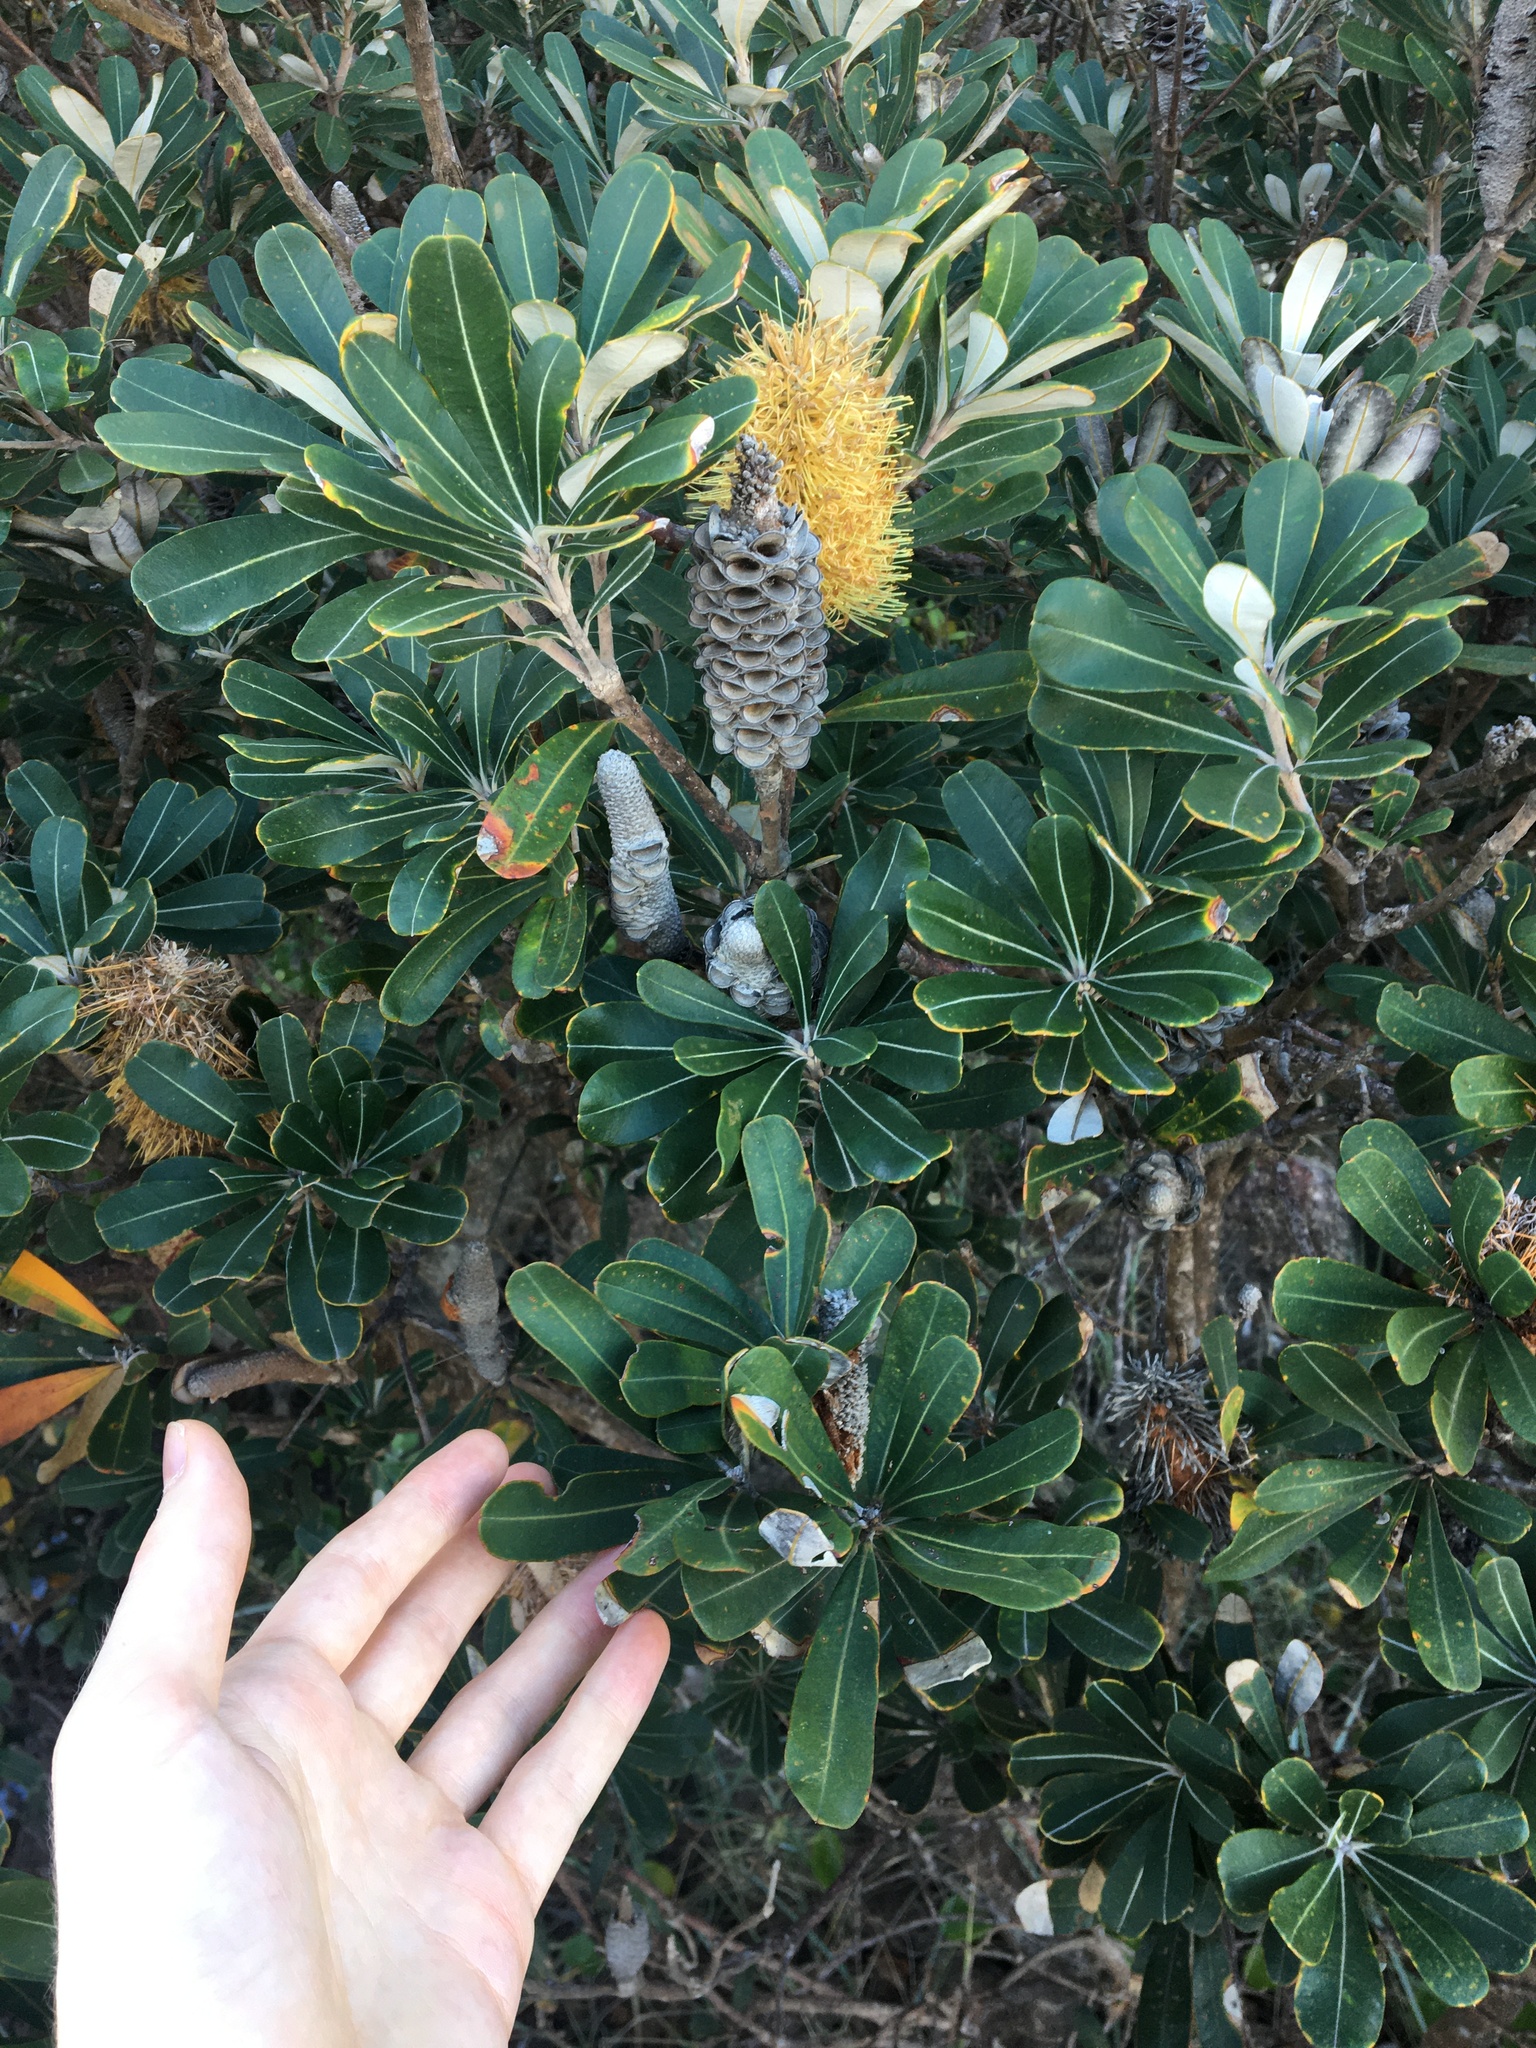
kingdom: Plantae
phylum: Tracheophyta
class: Magnoliopsida
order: Proteales
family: Proteaceae
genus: Banksia
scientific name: Banksia integrifolia
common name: White-honeysuckle
